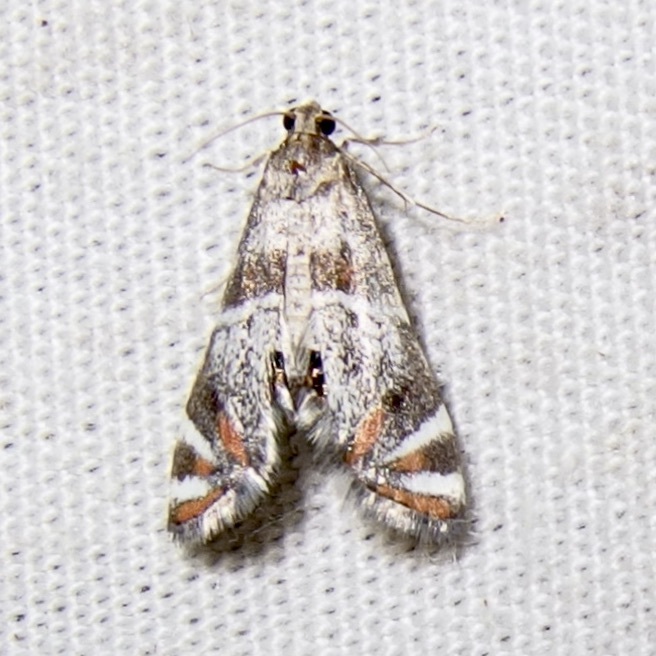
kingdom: Animalia
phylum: Arthropoda
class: Insecta
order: Lepidoptera
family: Crambidae
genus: Petrophila
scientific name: Petrophila jaliscalis
